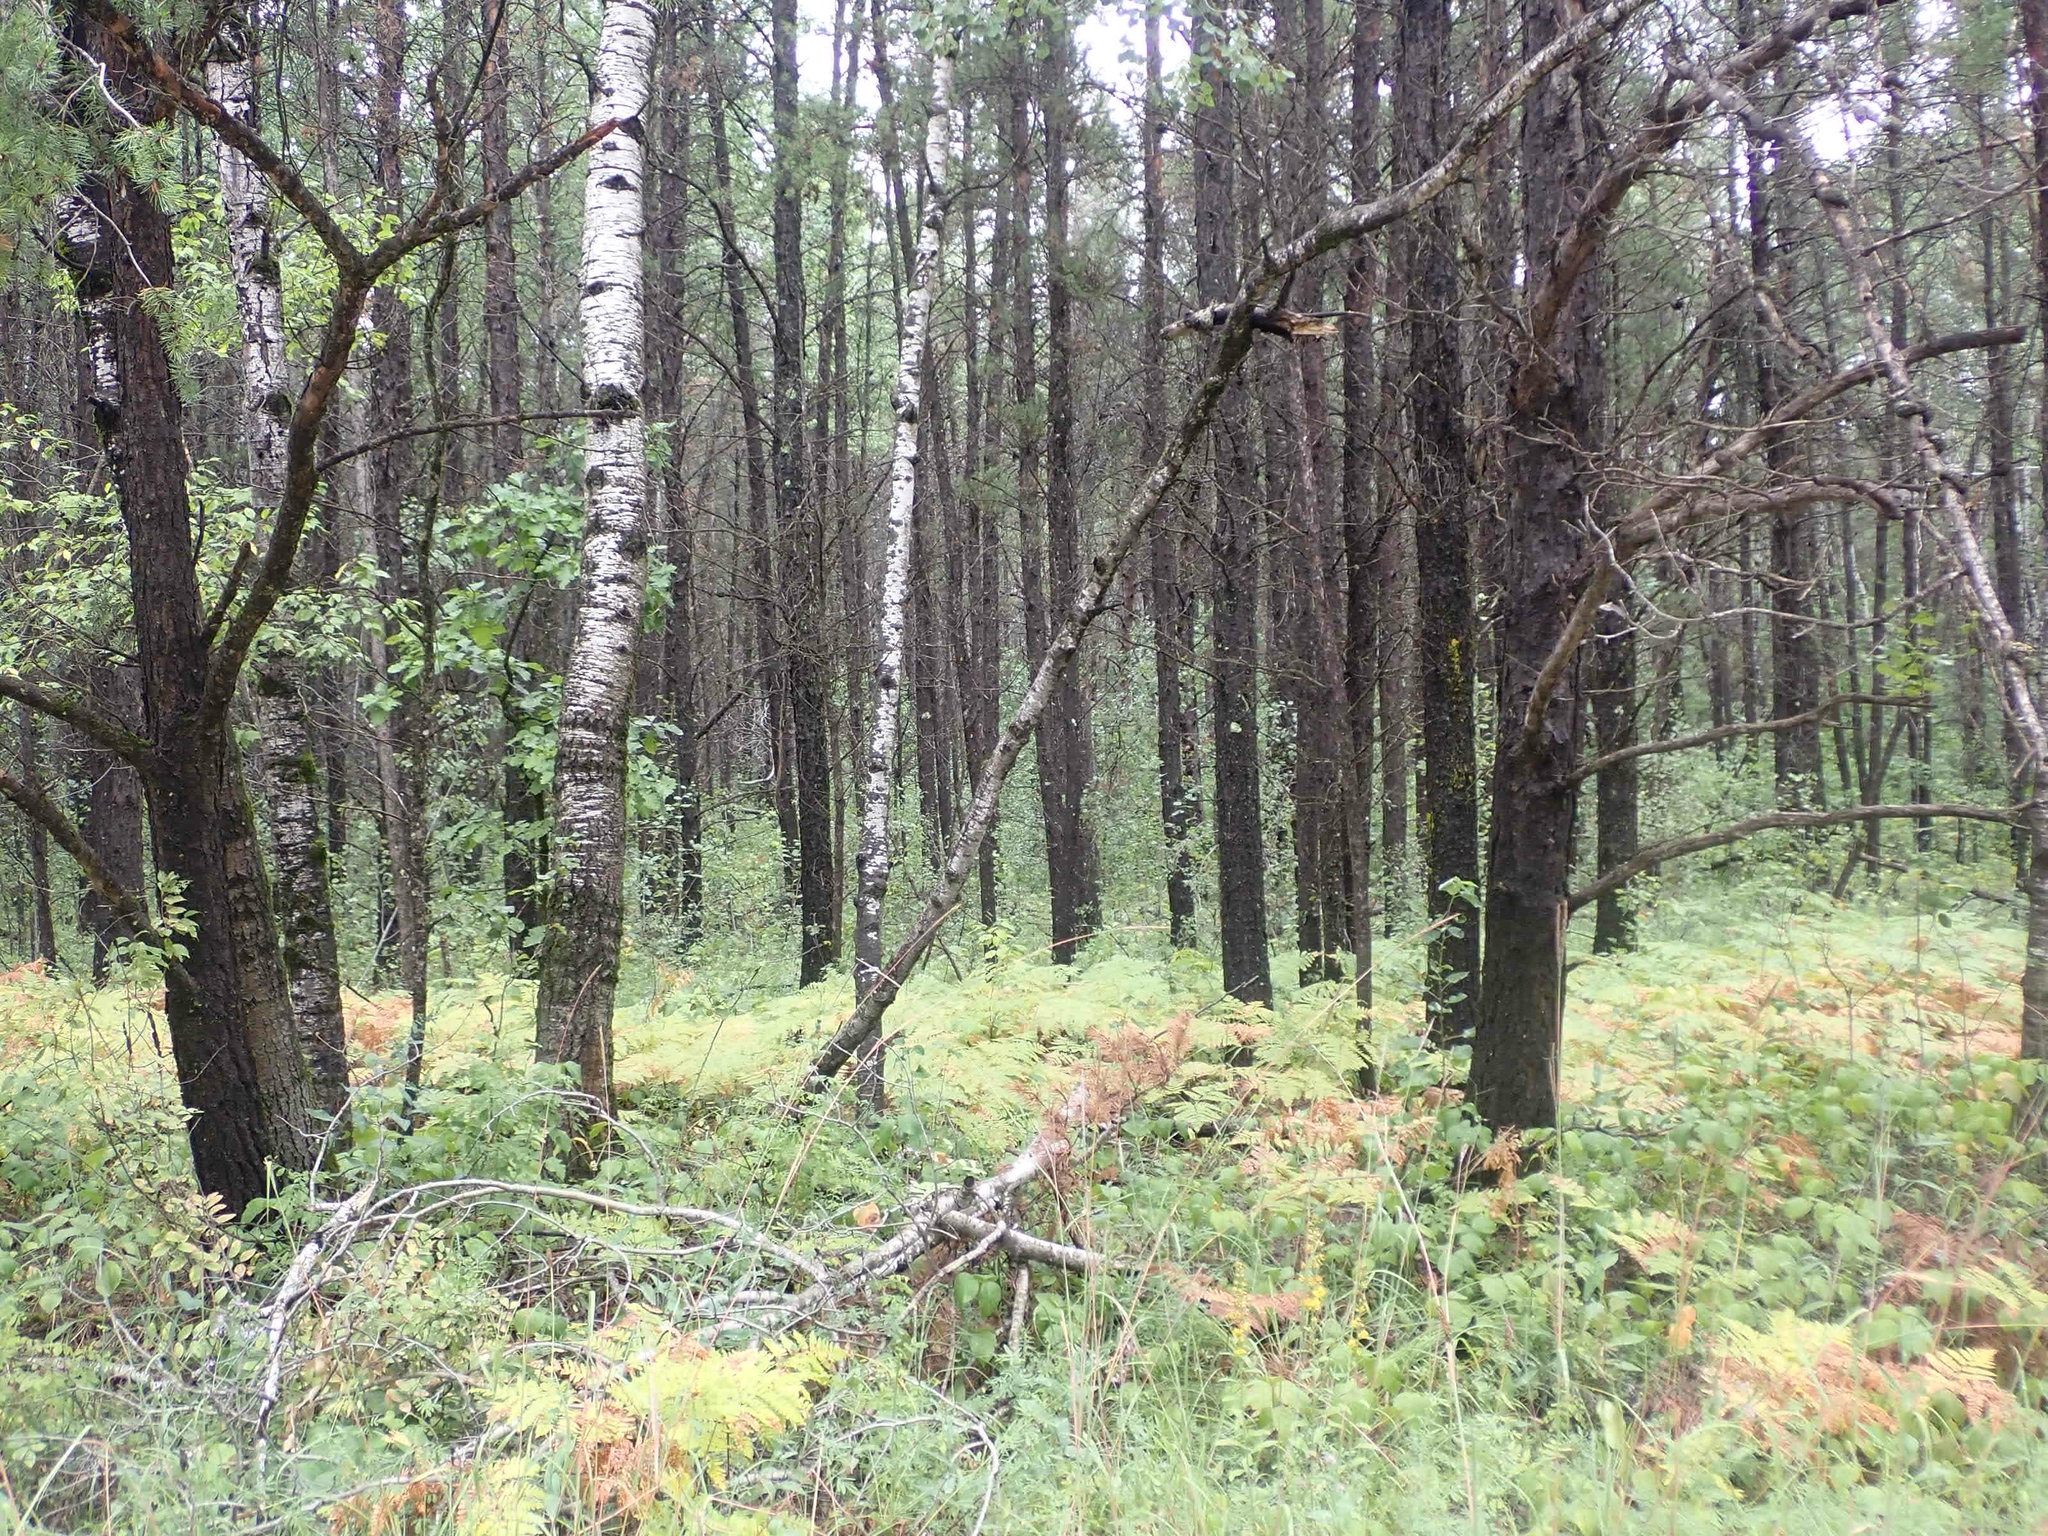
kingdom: Plantae
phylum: Tracheophyta
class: Polypodiopsida
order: Polypodiales
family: Dennstaedtiaceae
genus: Pteridium
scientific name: Pteridium aquilinum
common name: Bracken
